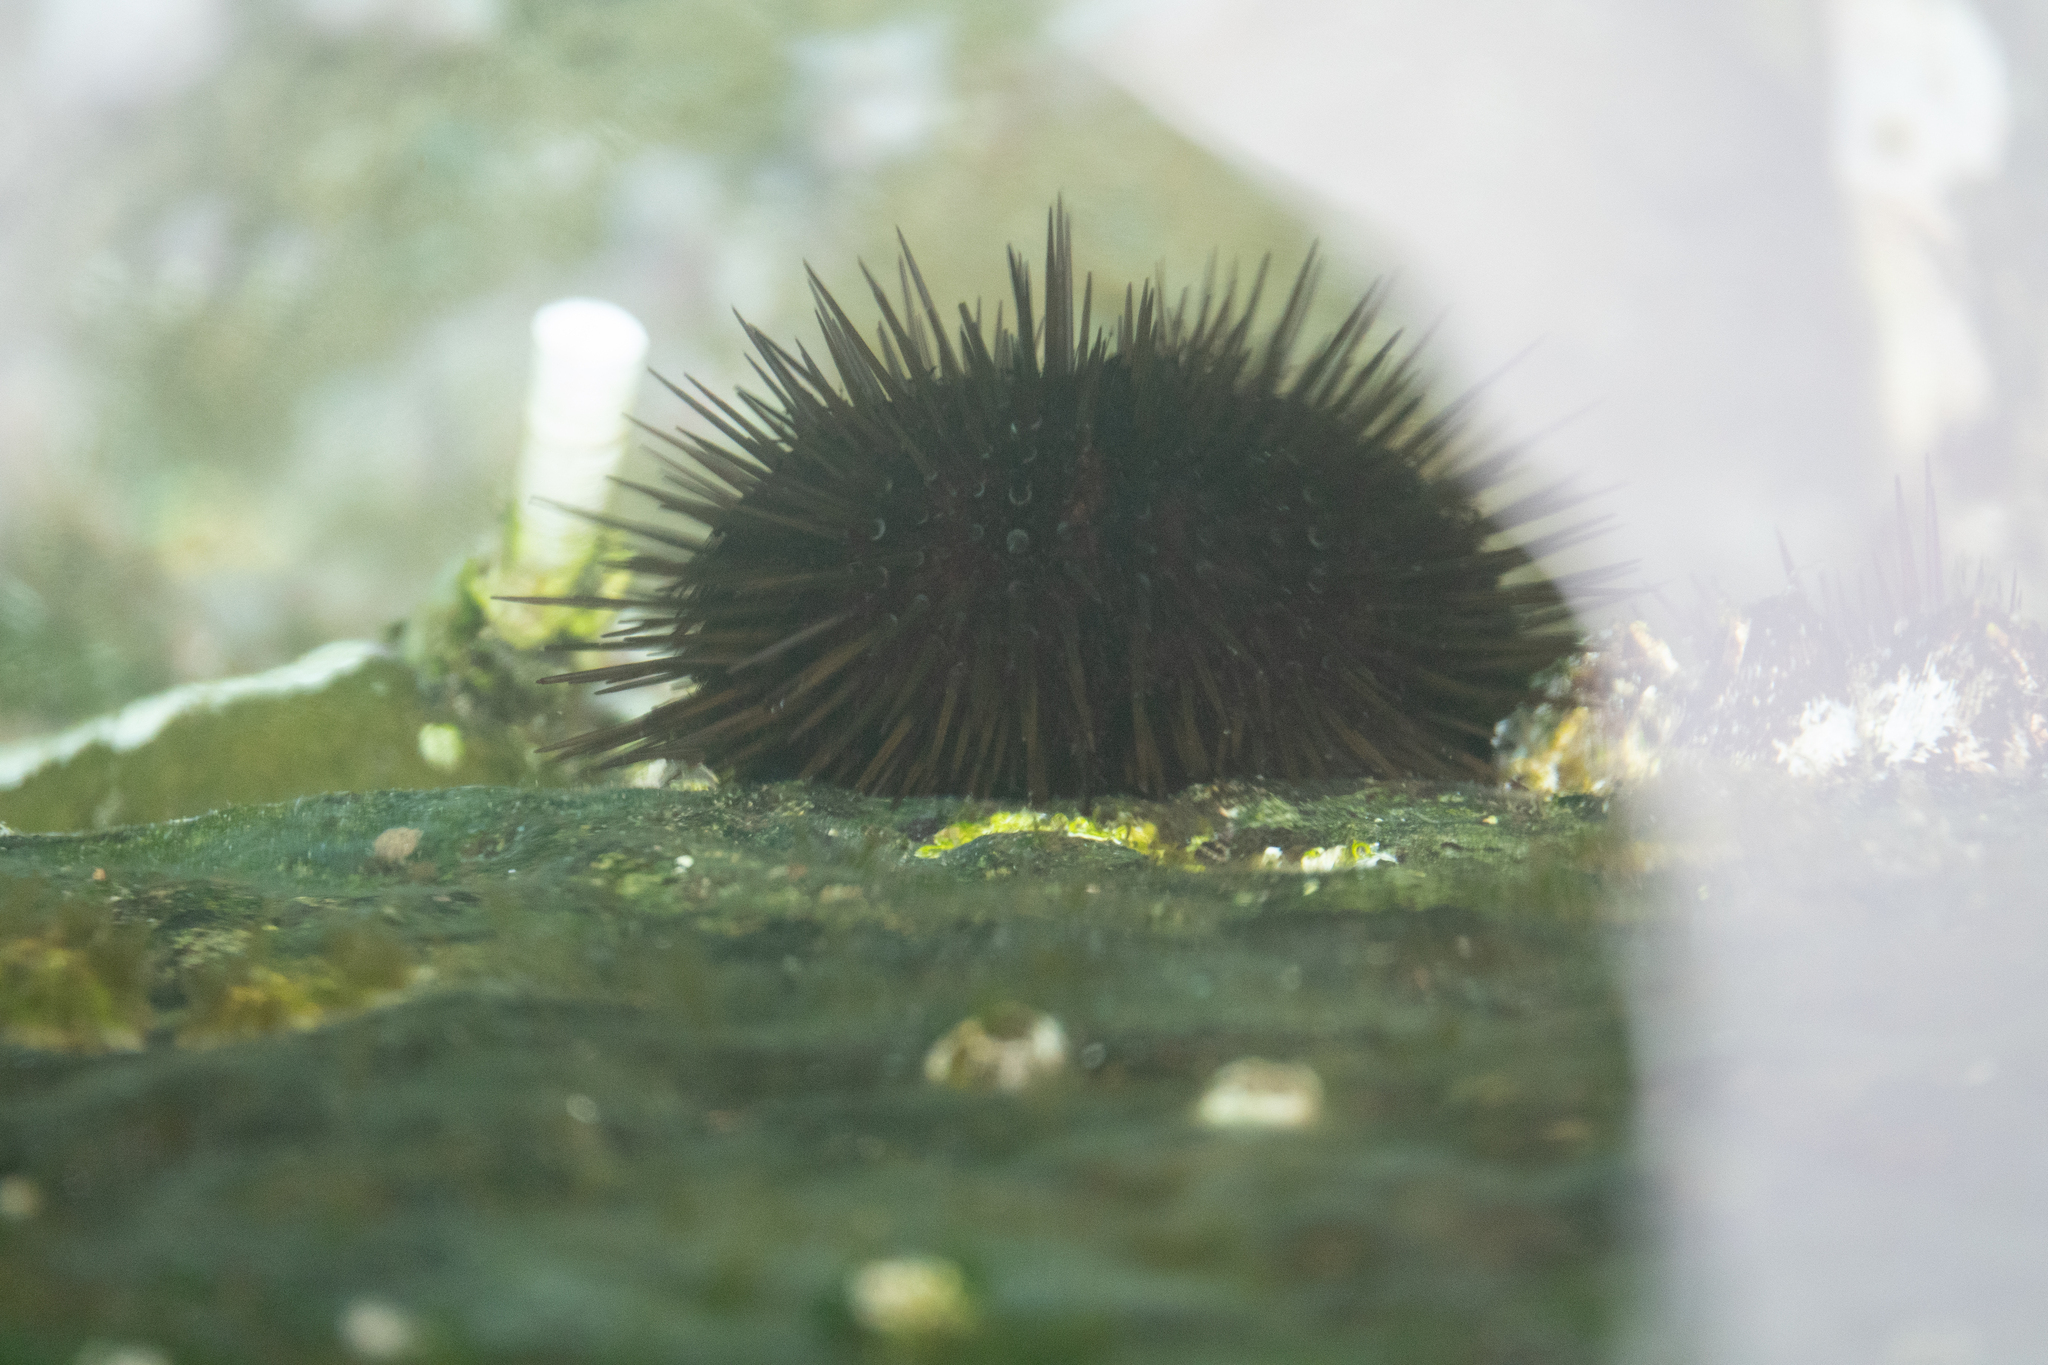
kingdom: Animalia
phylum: Echinodermata
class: Echinoidea
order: Camarodonta
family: Parechinidae
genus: Paracentrotus
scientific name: Paracentrotus lividus
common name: Purple sea urchin
